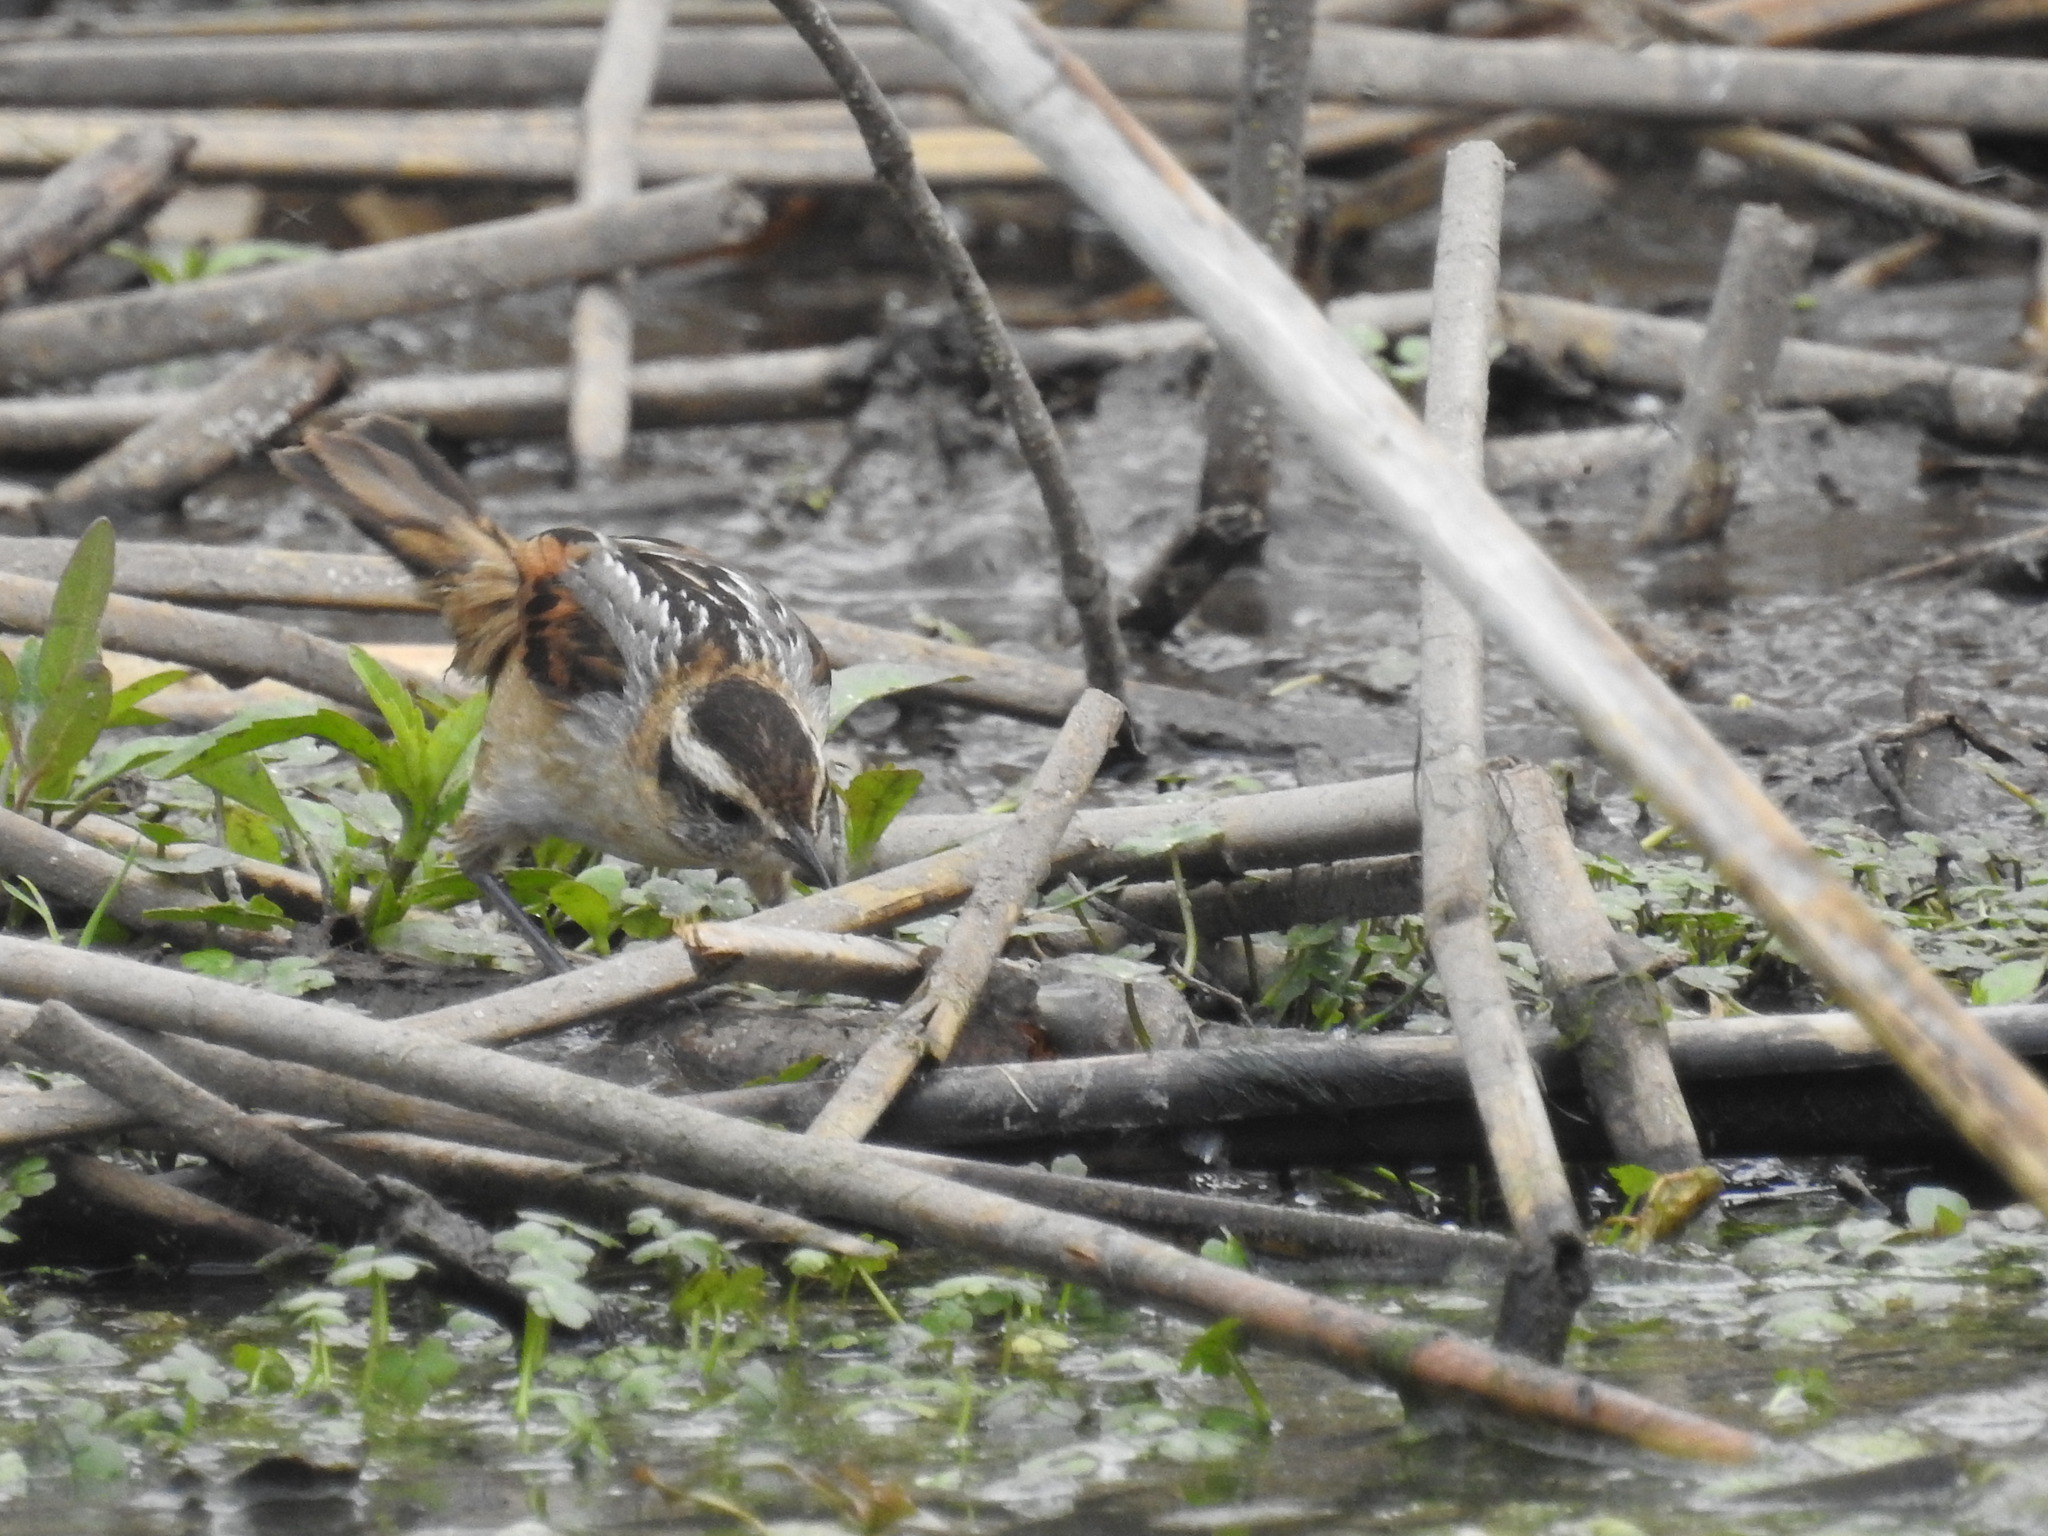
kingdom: Animalia
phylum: Chordata
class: Aves
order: Passeriformes
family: Furnariidae
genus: Phleocryptes
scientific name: Phleocryptes melanops
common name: Wren-like rushbird
